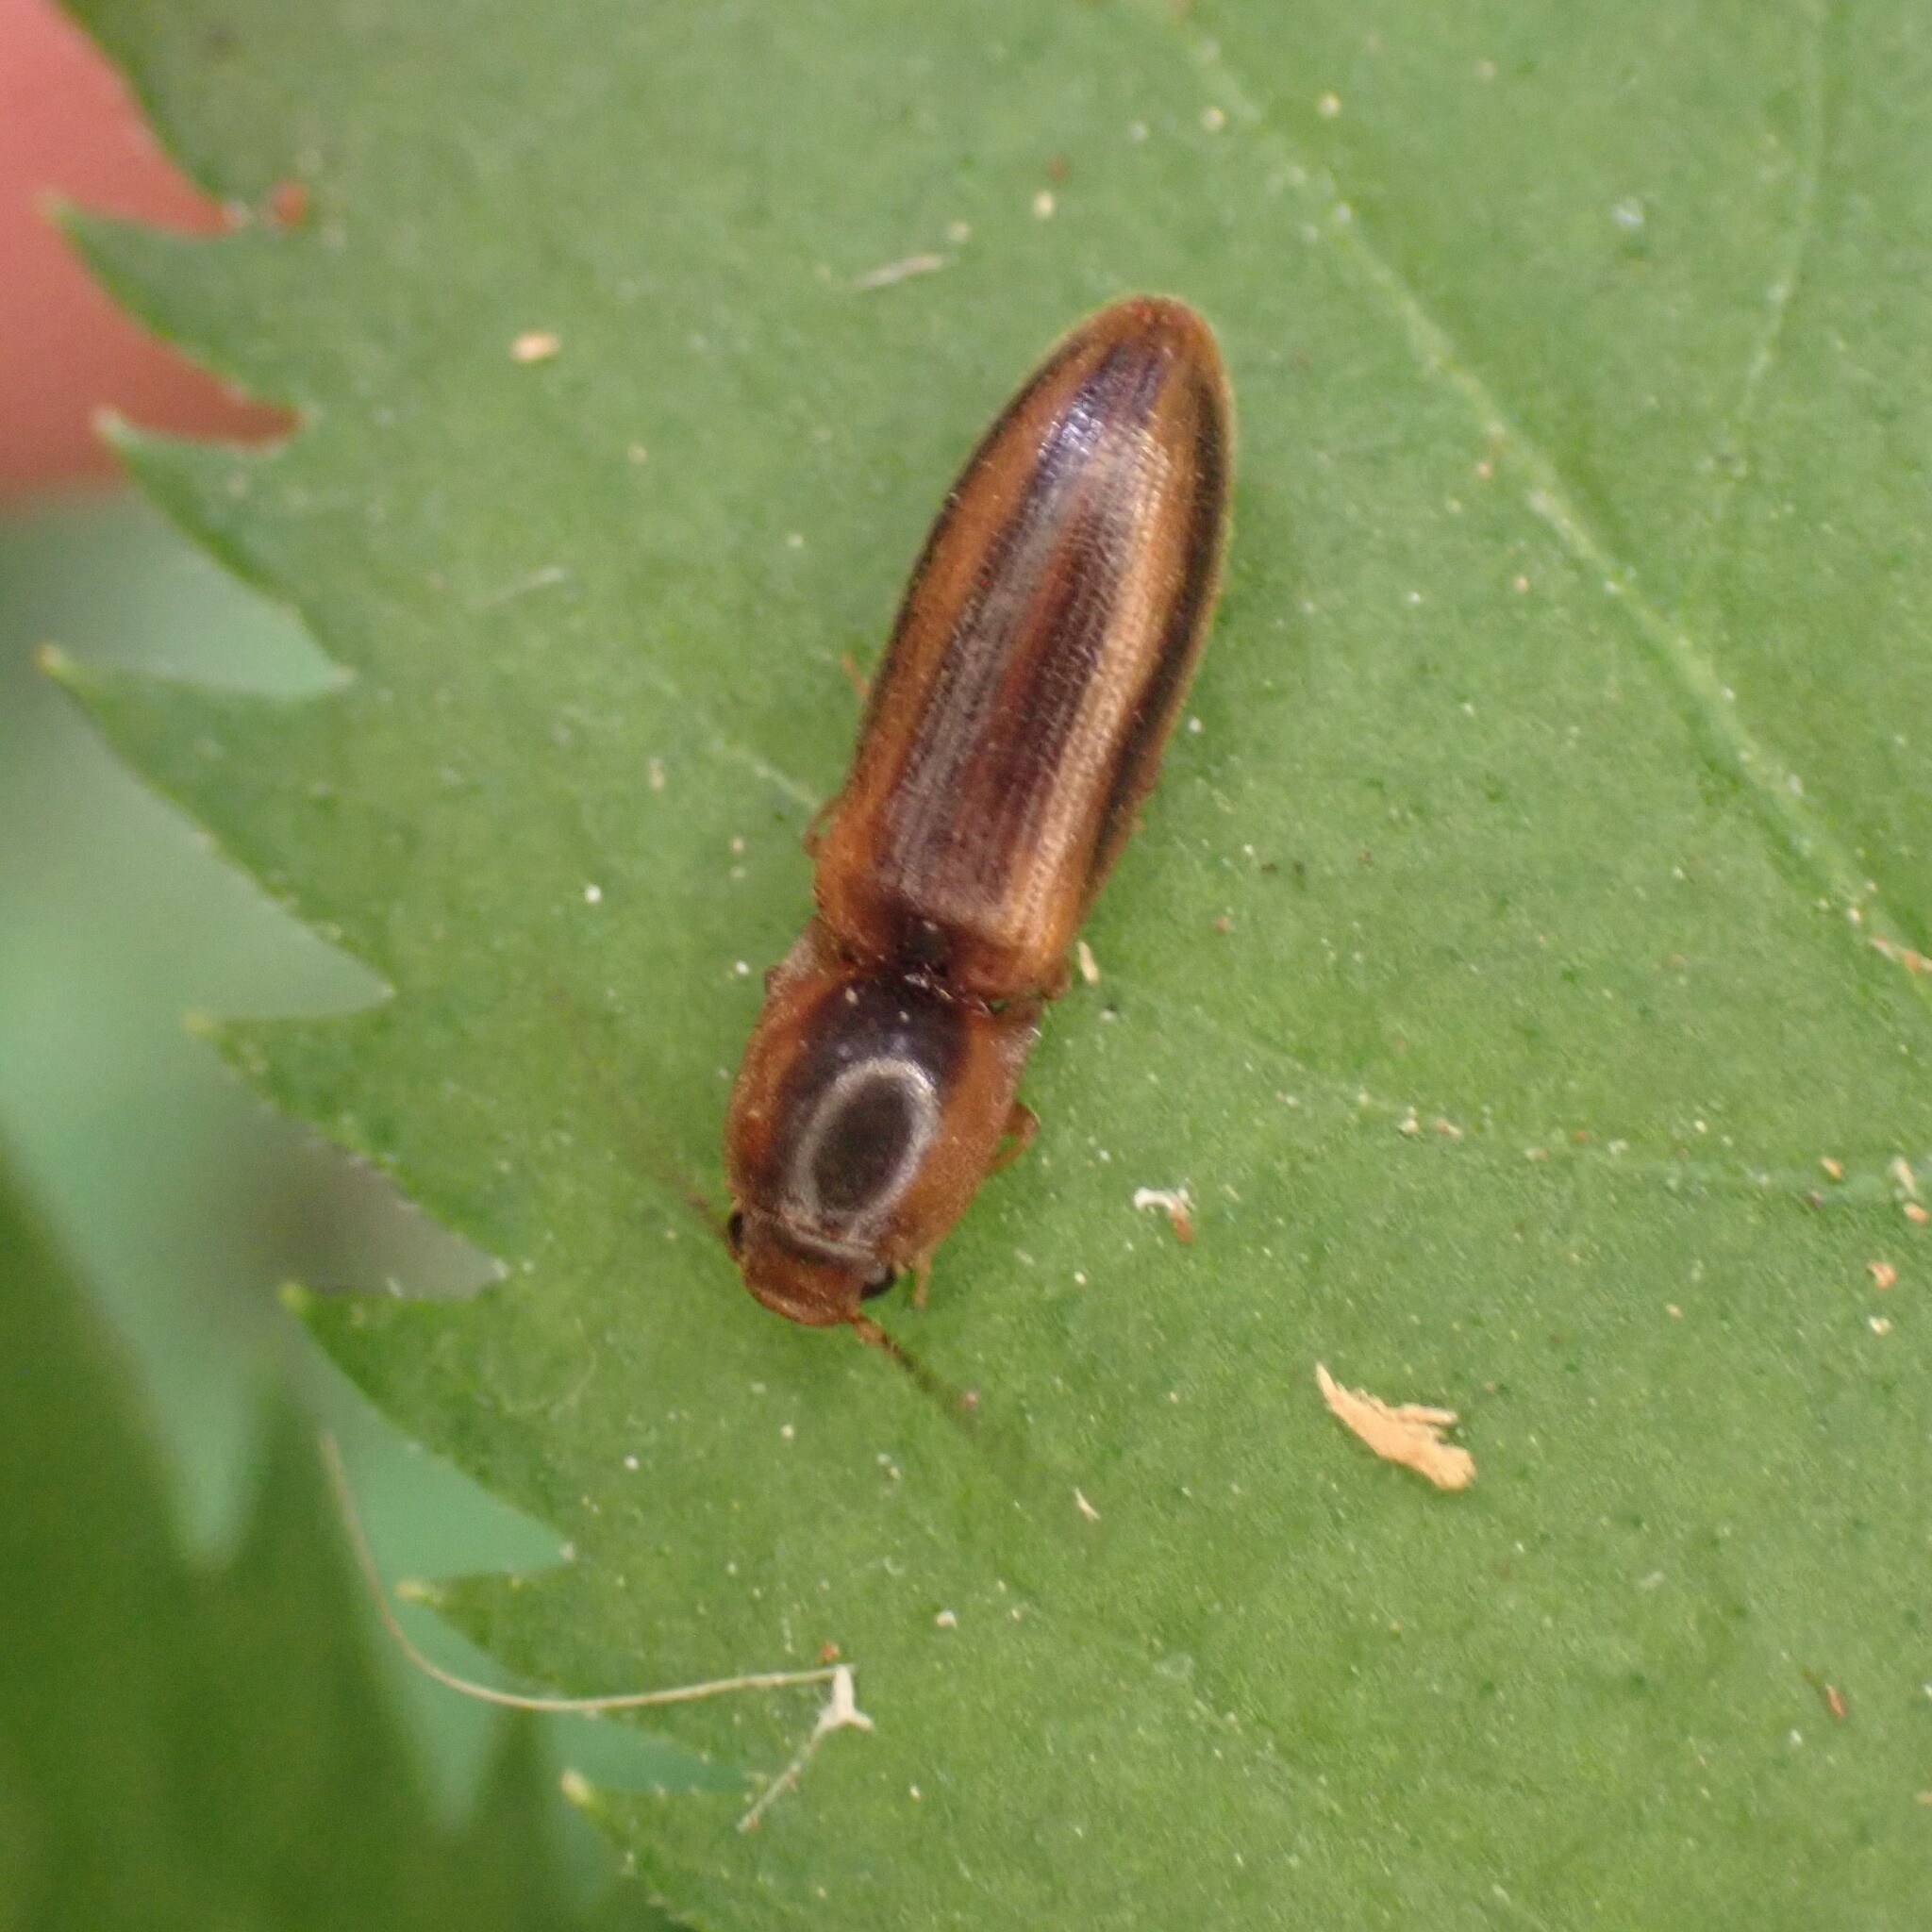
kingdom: Animalia
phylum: Arthropoda
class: Insecta
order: Coleoptera
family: Elateridae
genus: Athous
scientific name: Athous vittiger
